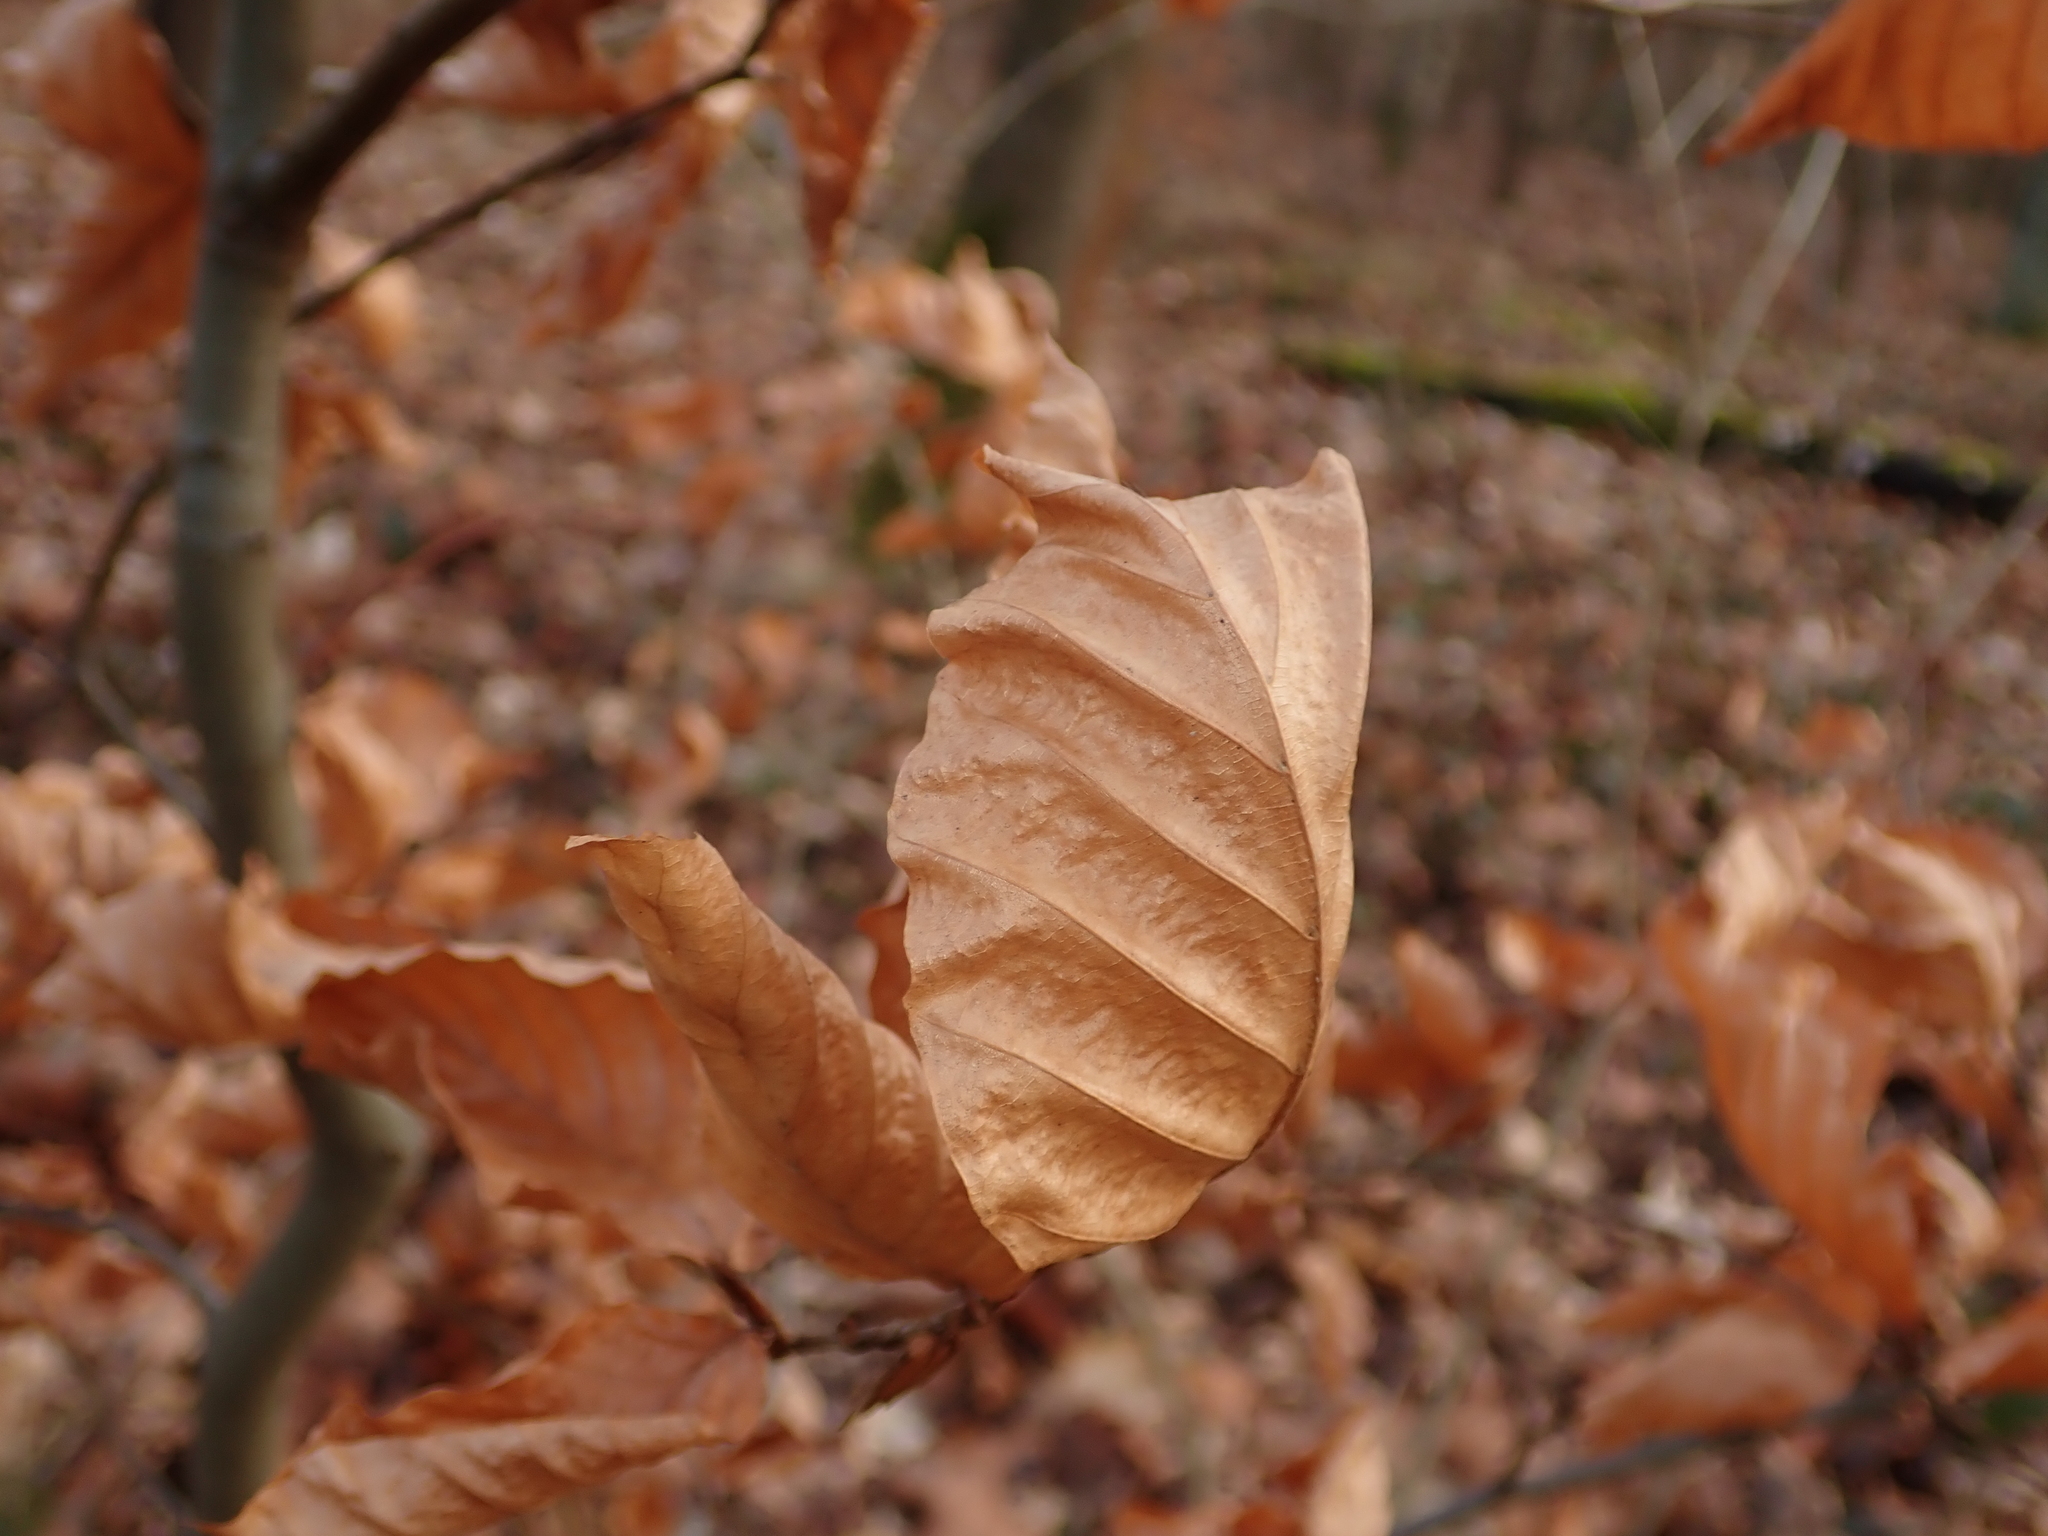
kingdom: Plantae
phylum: Tracheophyta
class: Magnoliopsida
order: Fagales
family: Fagaceae
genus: Fagus
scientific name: Fagus sylvatica
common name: Beech
